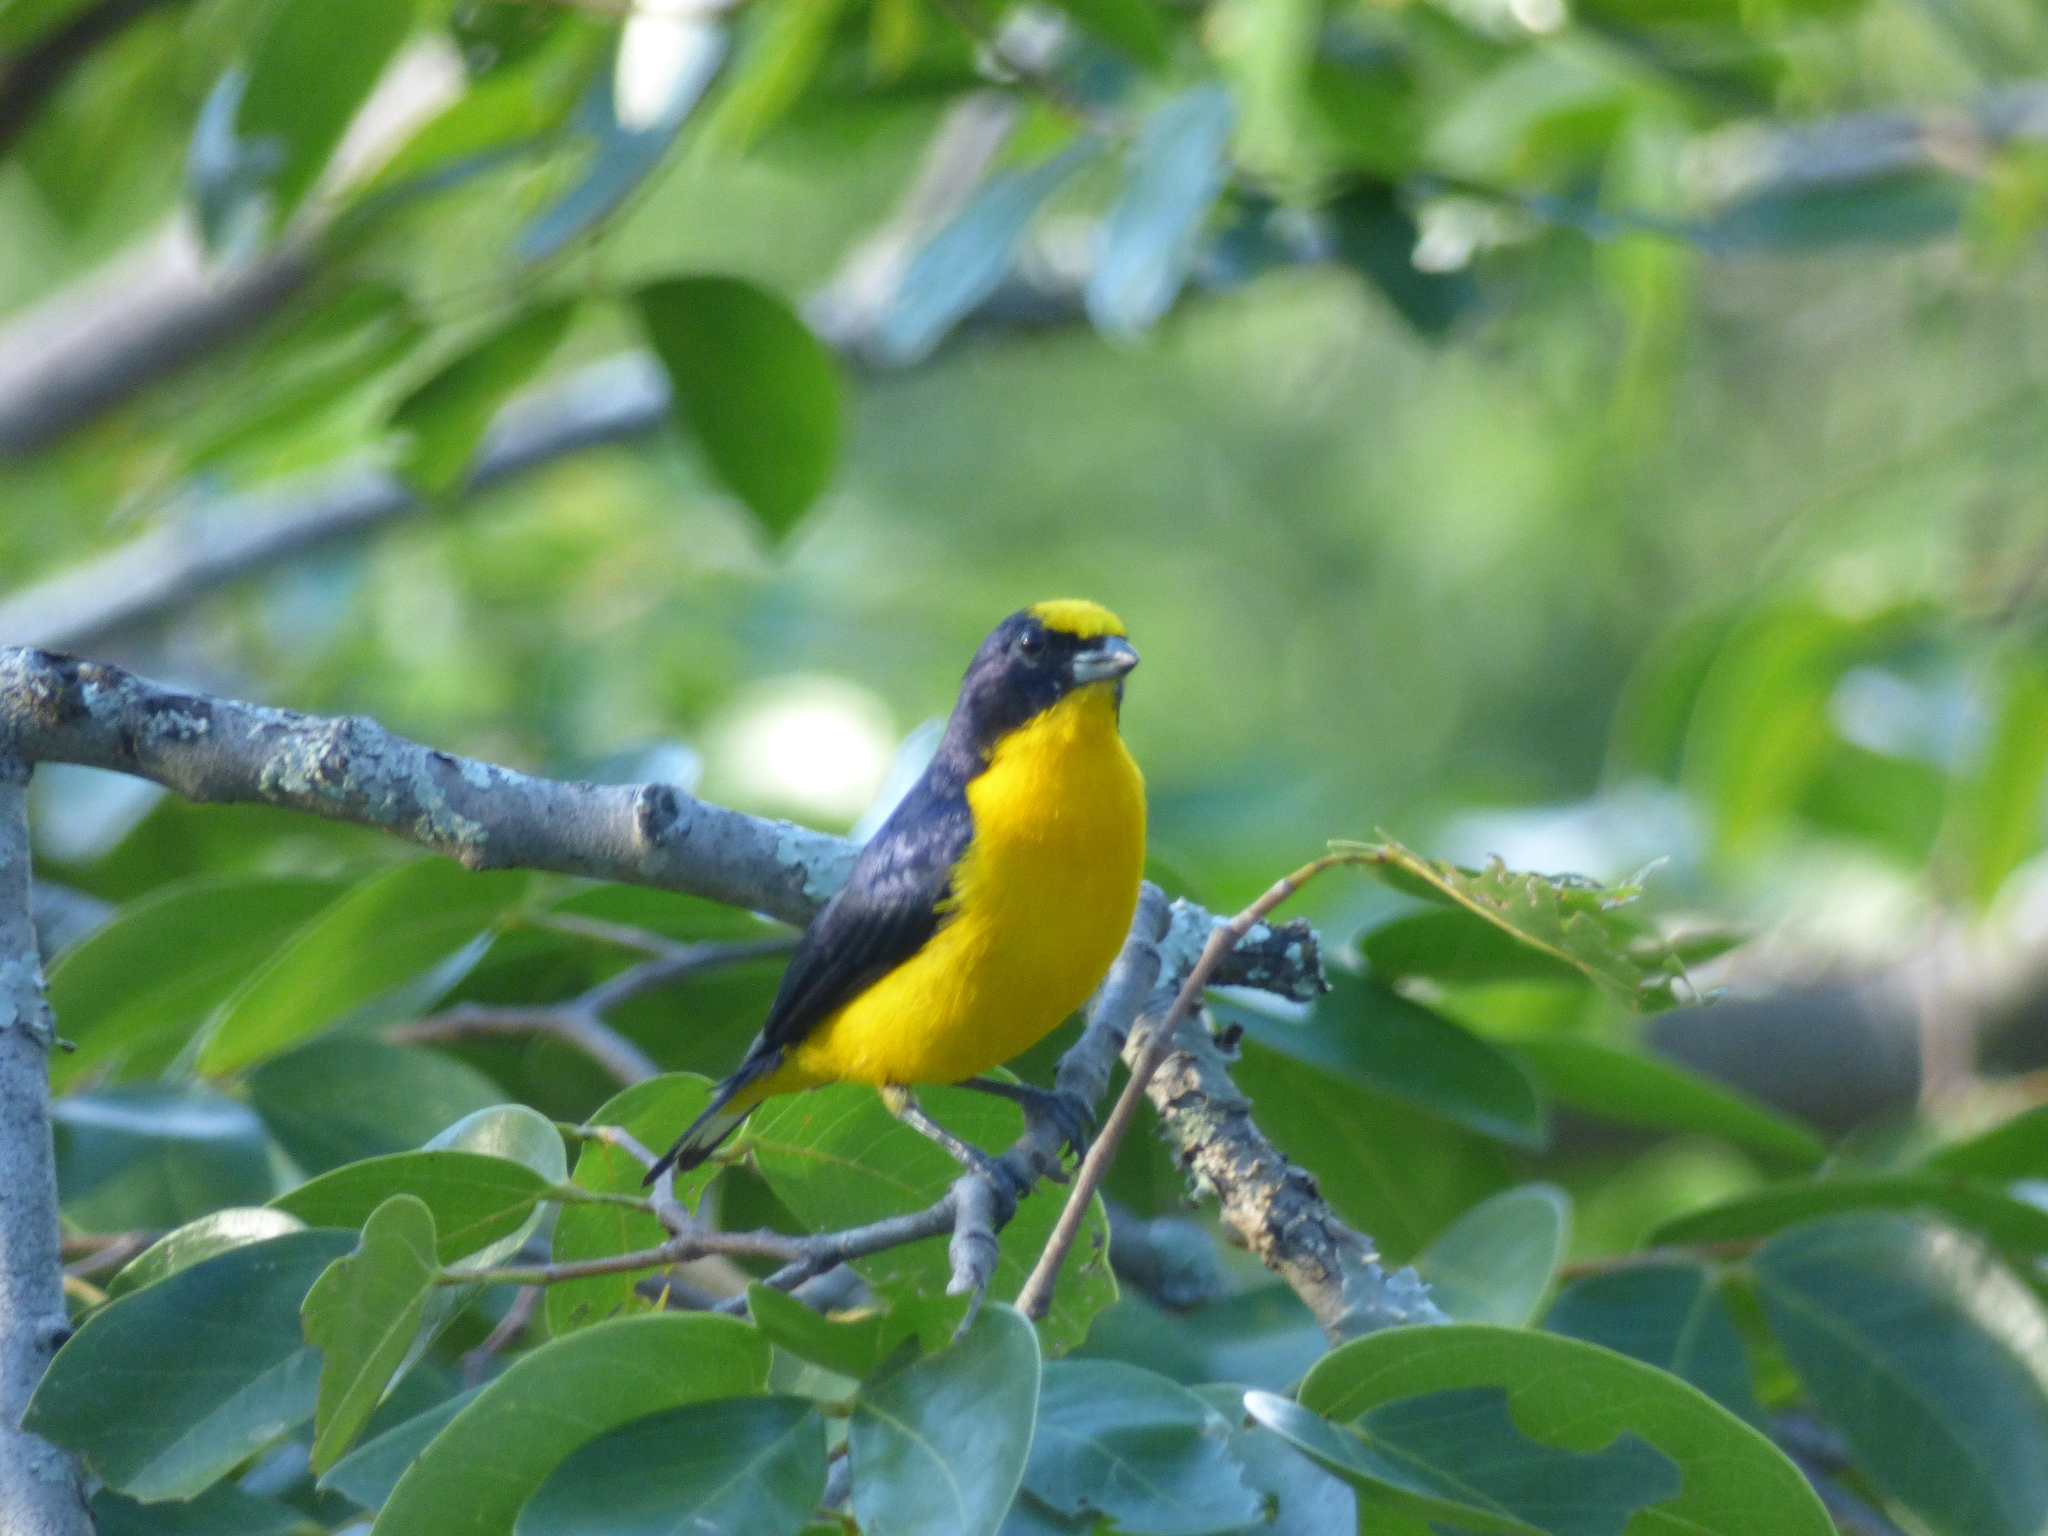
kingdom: Animalia
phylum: Chordata
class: Aves
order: Passeriformes
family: Fringillidae
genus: Euphonia
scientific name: Euphonia laniirostris
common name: Thick-billed euphonia
